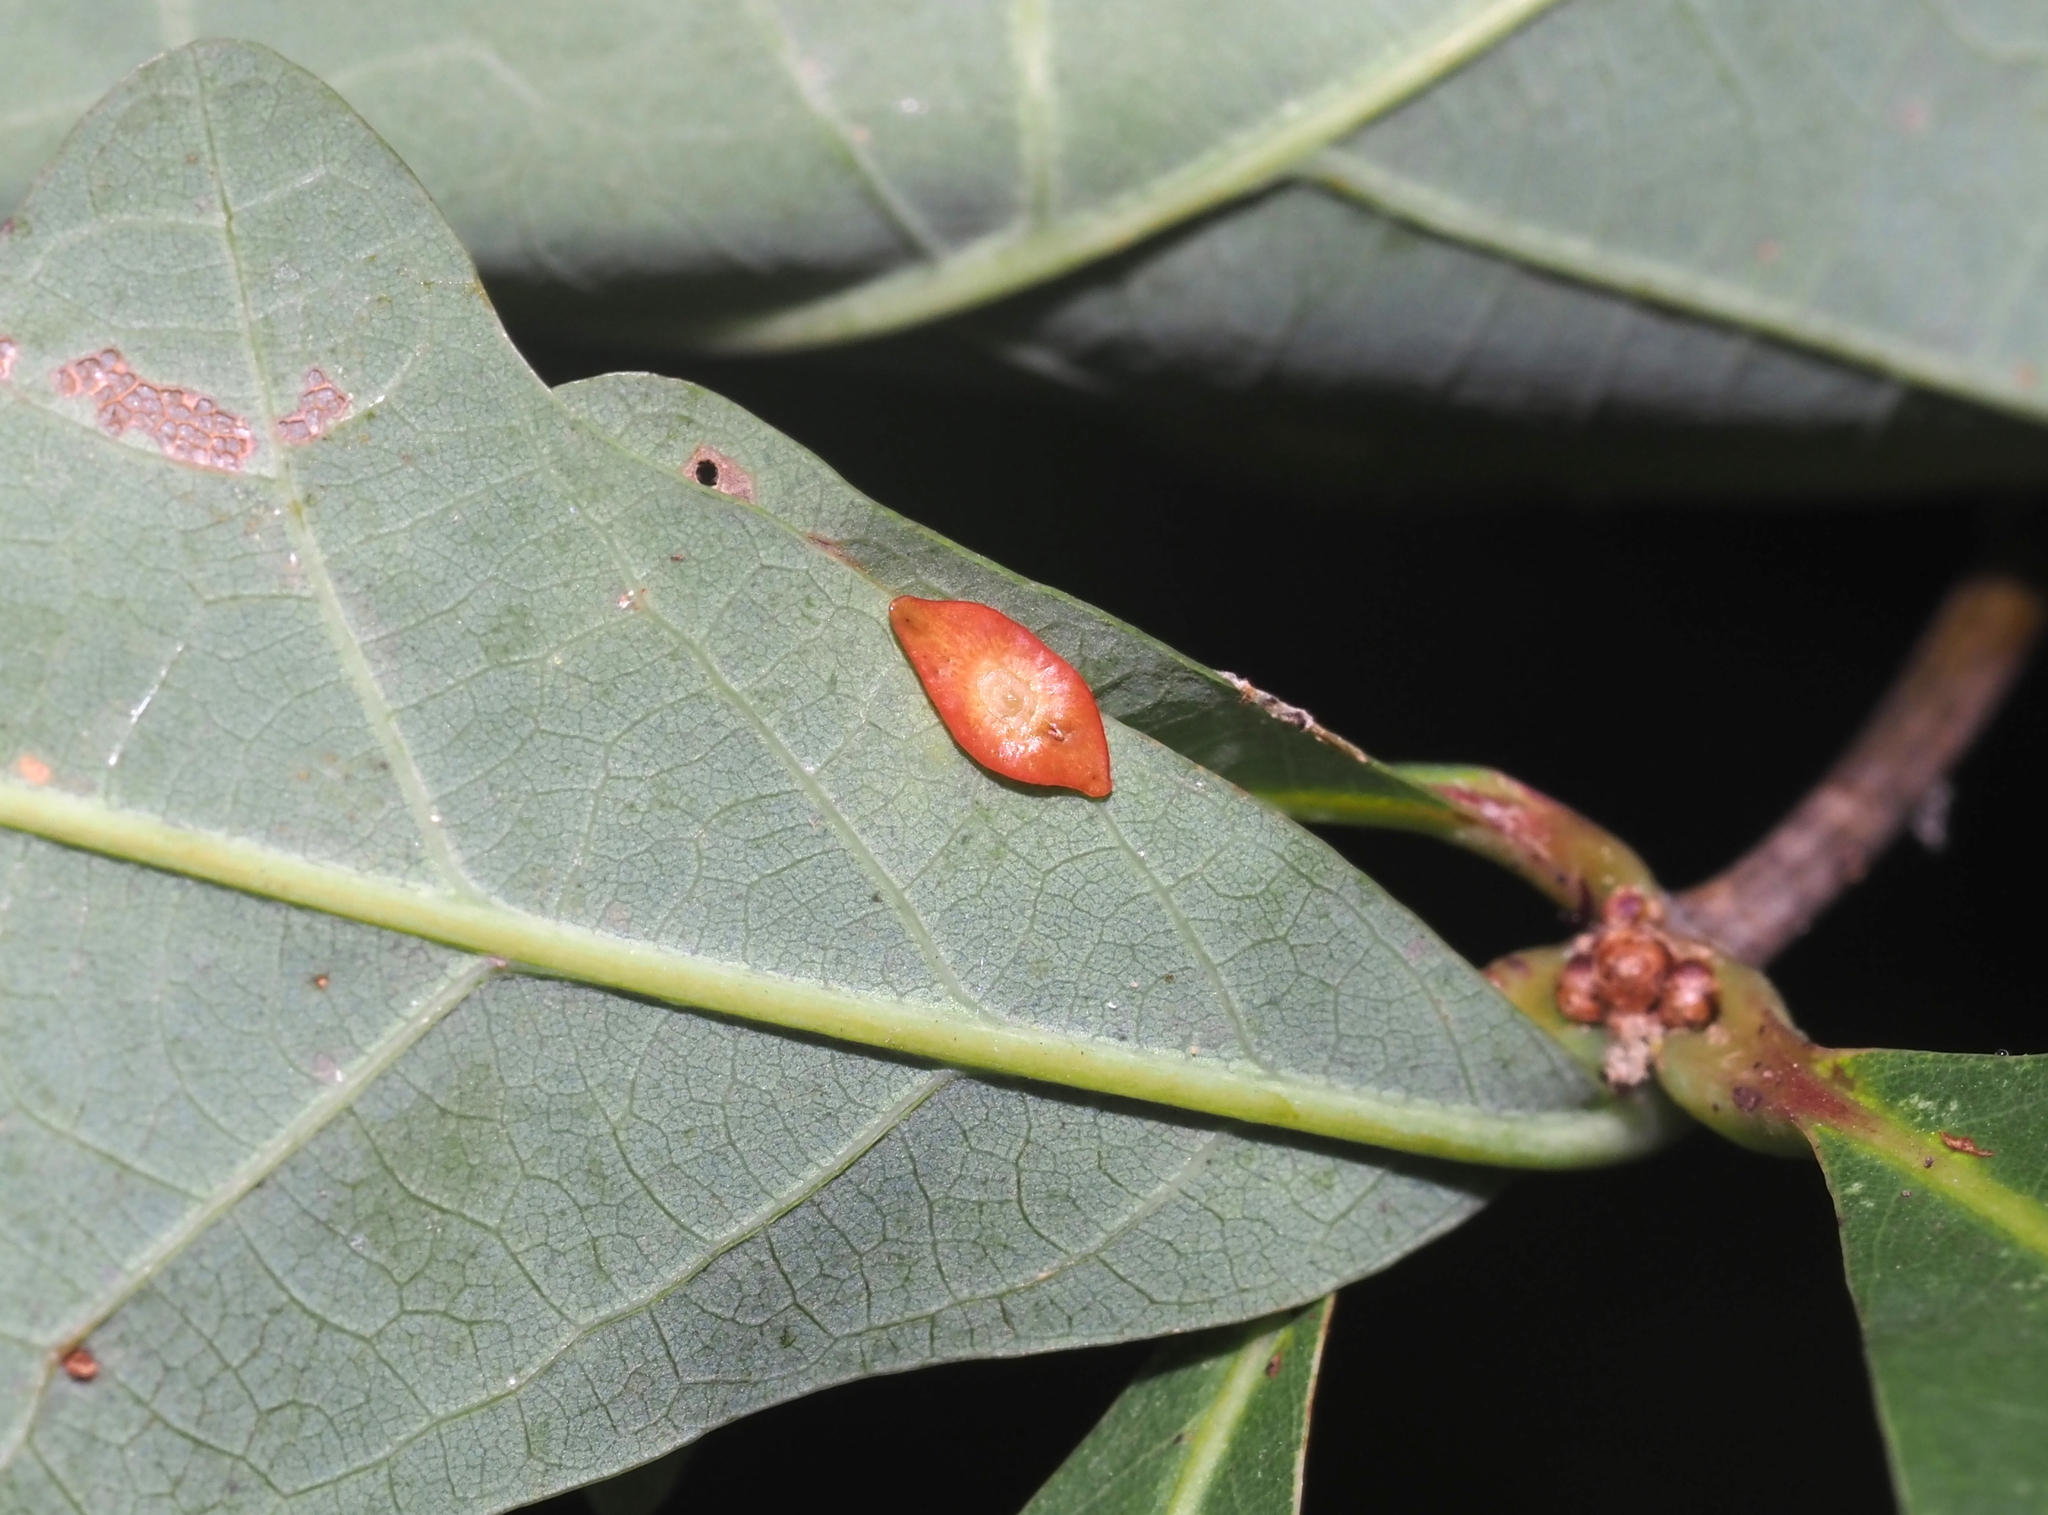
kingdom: Animalia
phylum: Arthropoda
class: Insecta
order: Hymenoptera
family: Cynipidae
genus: Phylloteras
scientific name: Phylloteras
